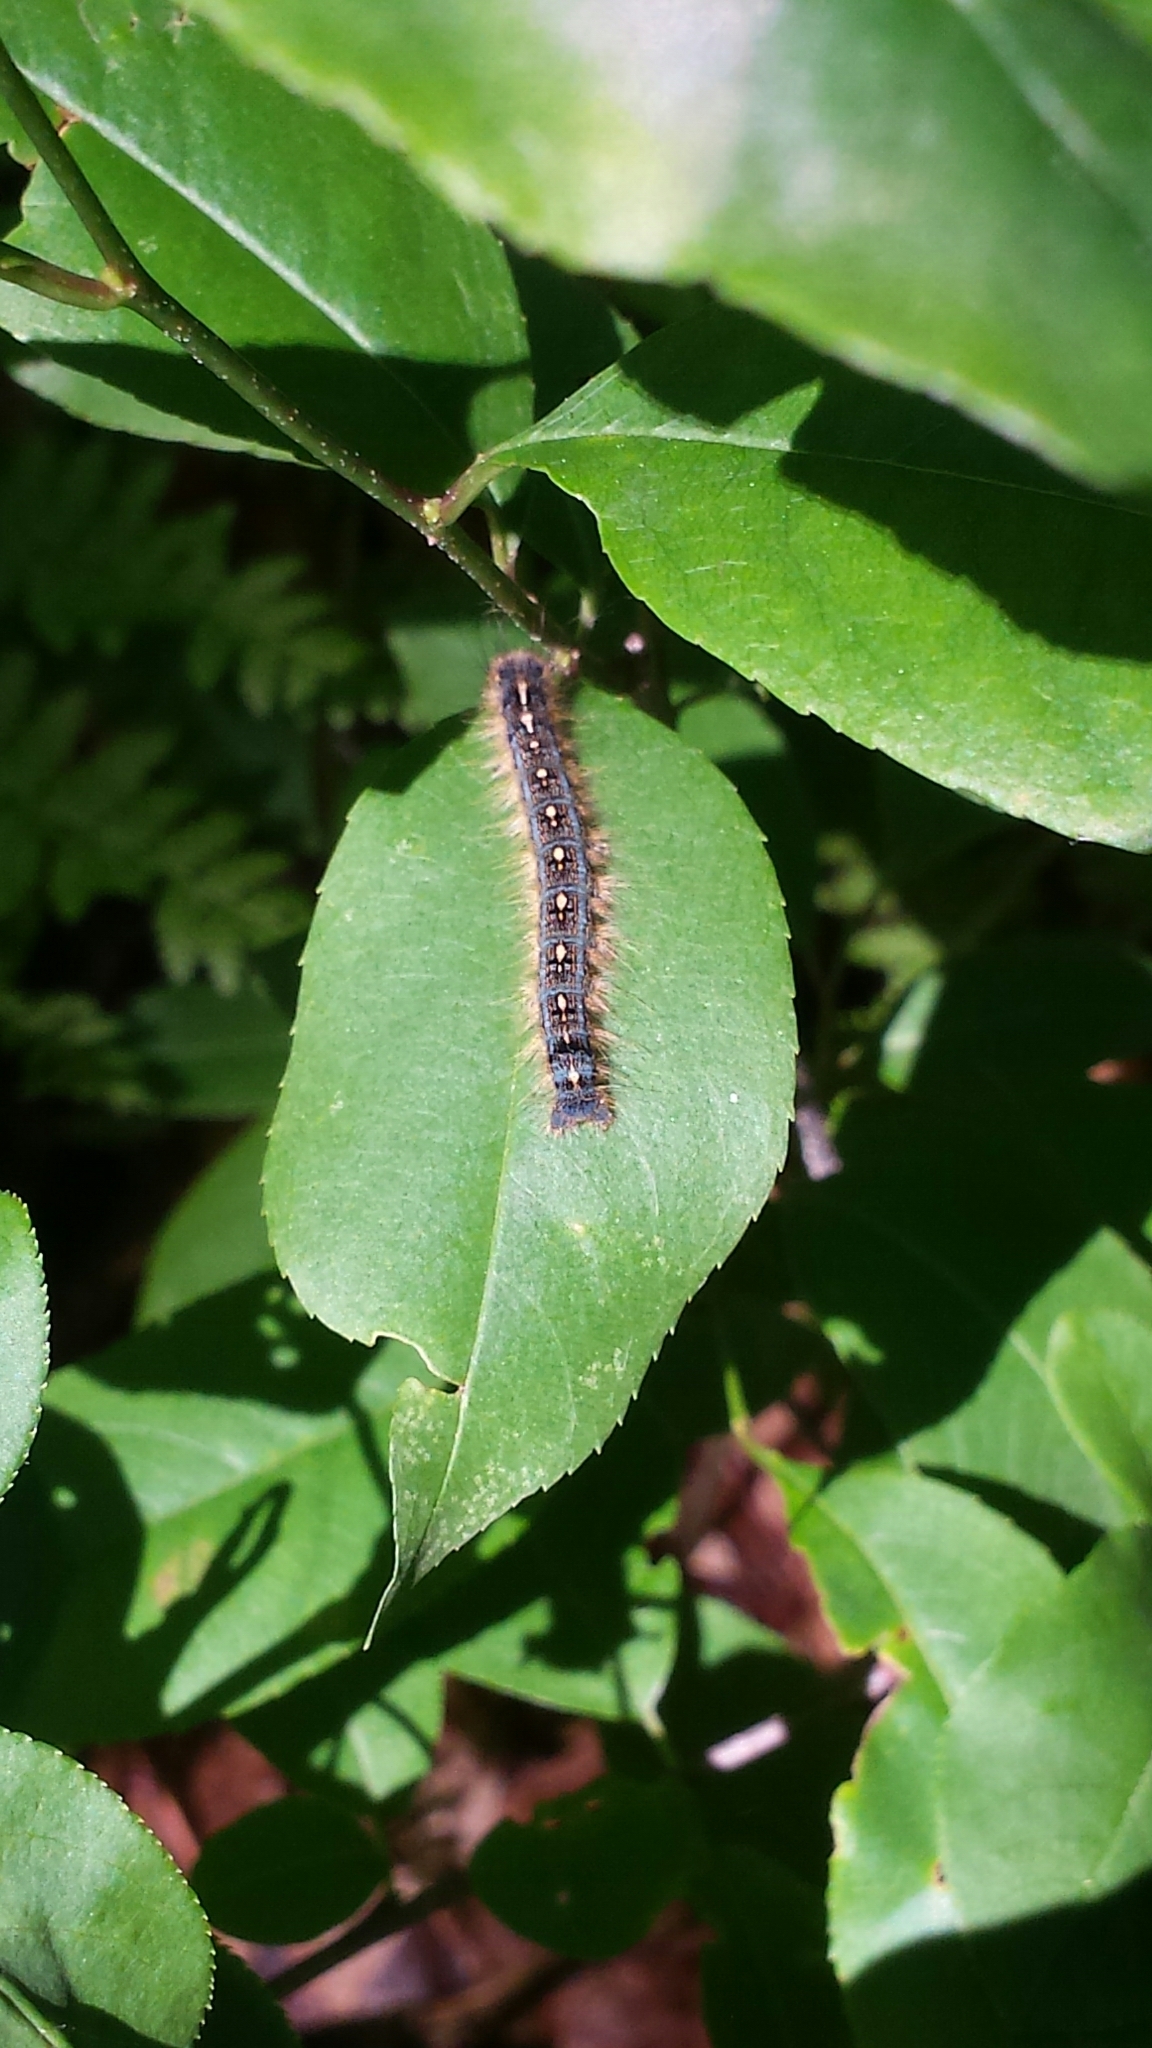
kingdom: Animalia
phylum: Arthropoda
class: Insecta
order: Lepidoptera
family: Lasiocampidae
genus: Malacosoma
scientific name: Malacosoma disstria
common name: Forest tent caterpillar
